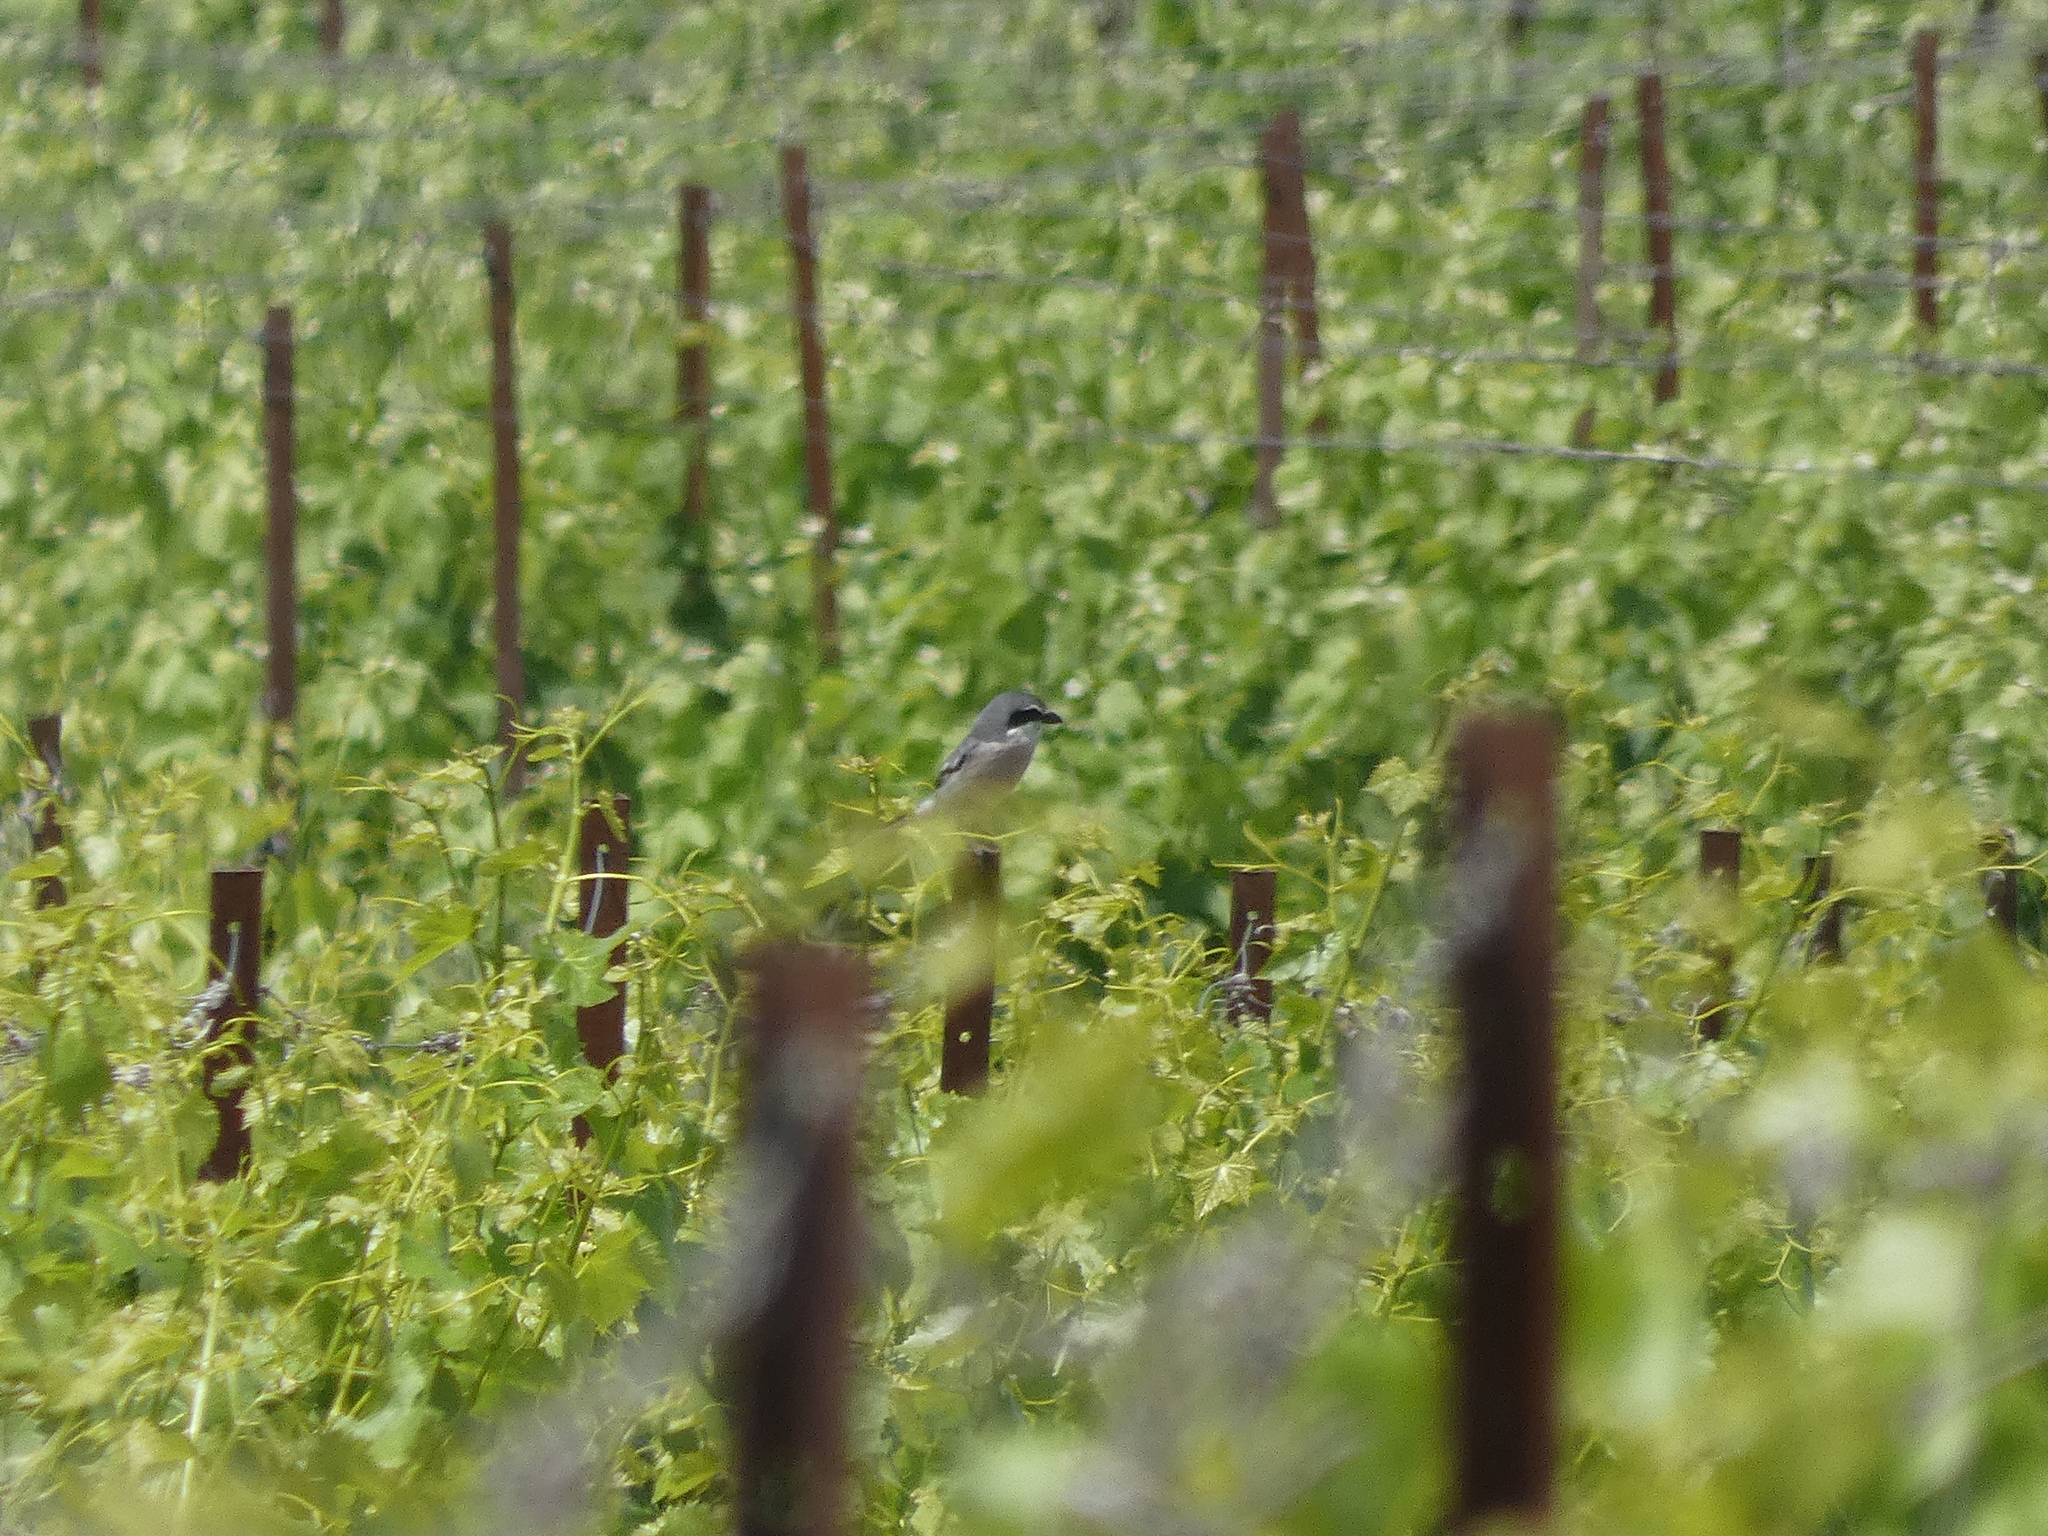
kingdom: Animalia
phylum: Chordata
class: Aves
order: Passeriformes
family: Laniidae
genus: Lanius
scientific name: Lanius meridionalis
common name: Iberian grey shrike
